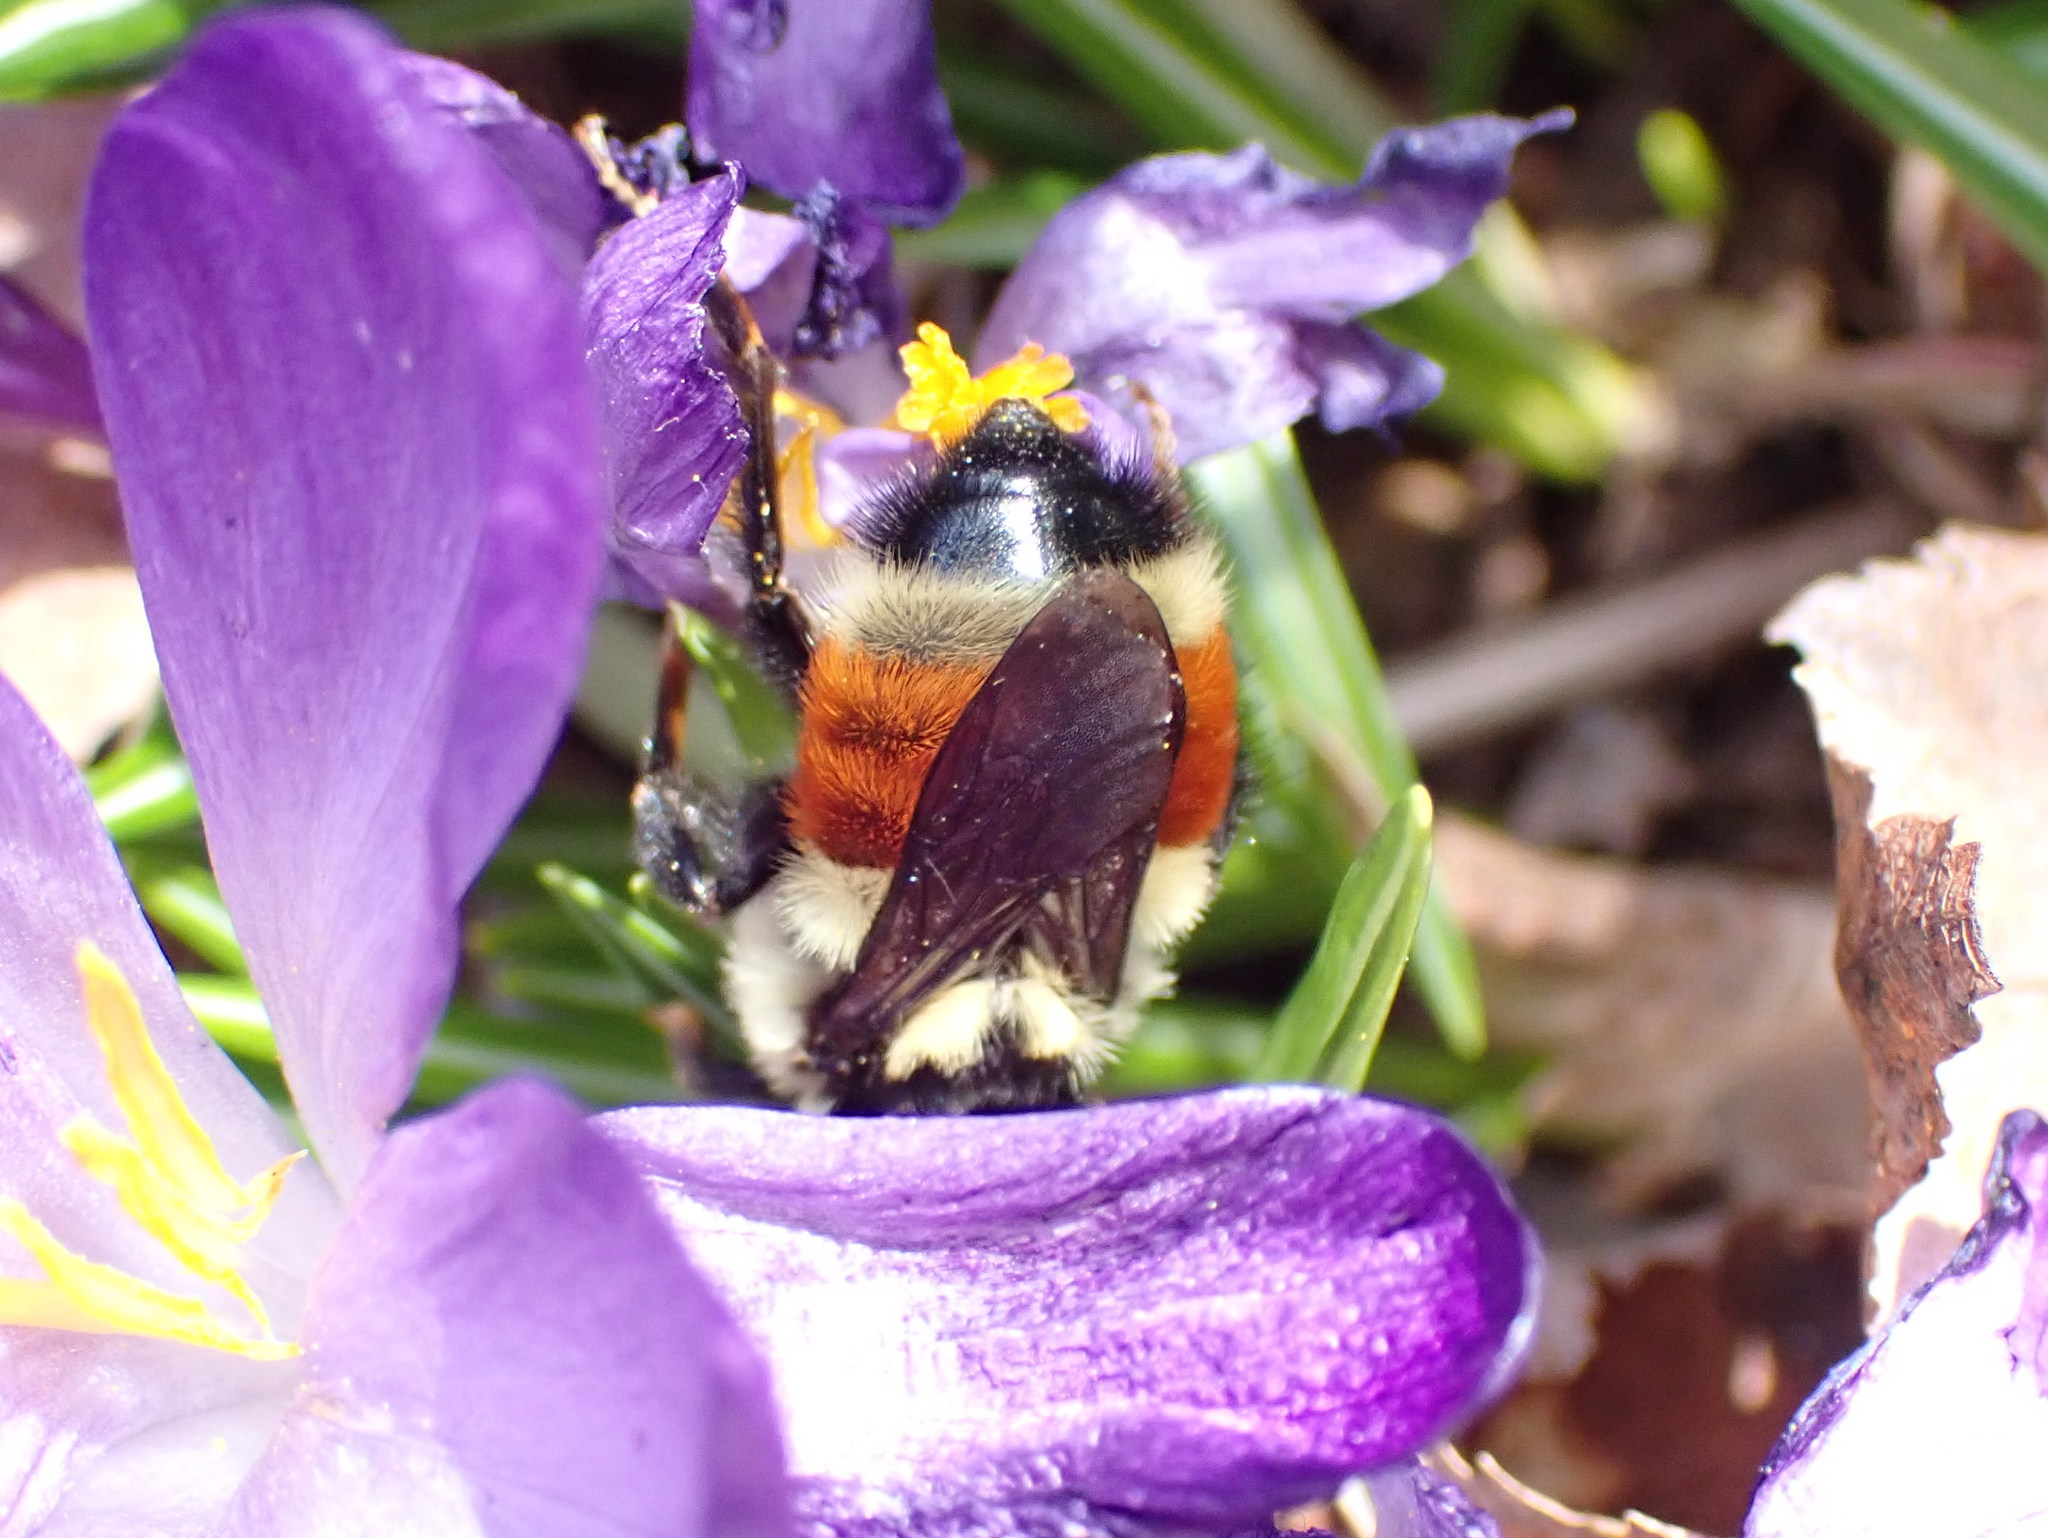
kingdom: Animalia
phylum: Arthropoda
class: Insecta
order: Hymenoptera
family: Apidae
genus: Bombus
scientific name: Bombus ternarius
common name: Tri-colored bumble bee
